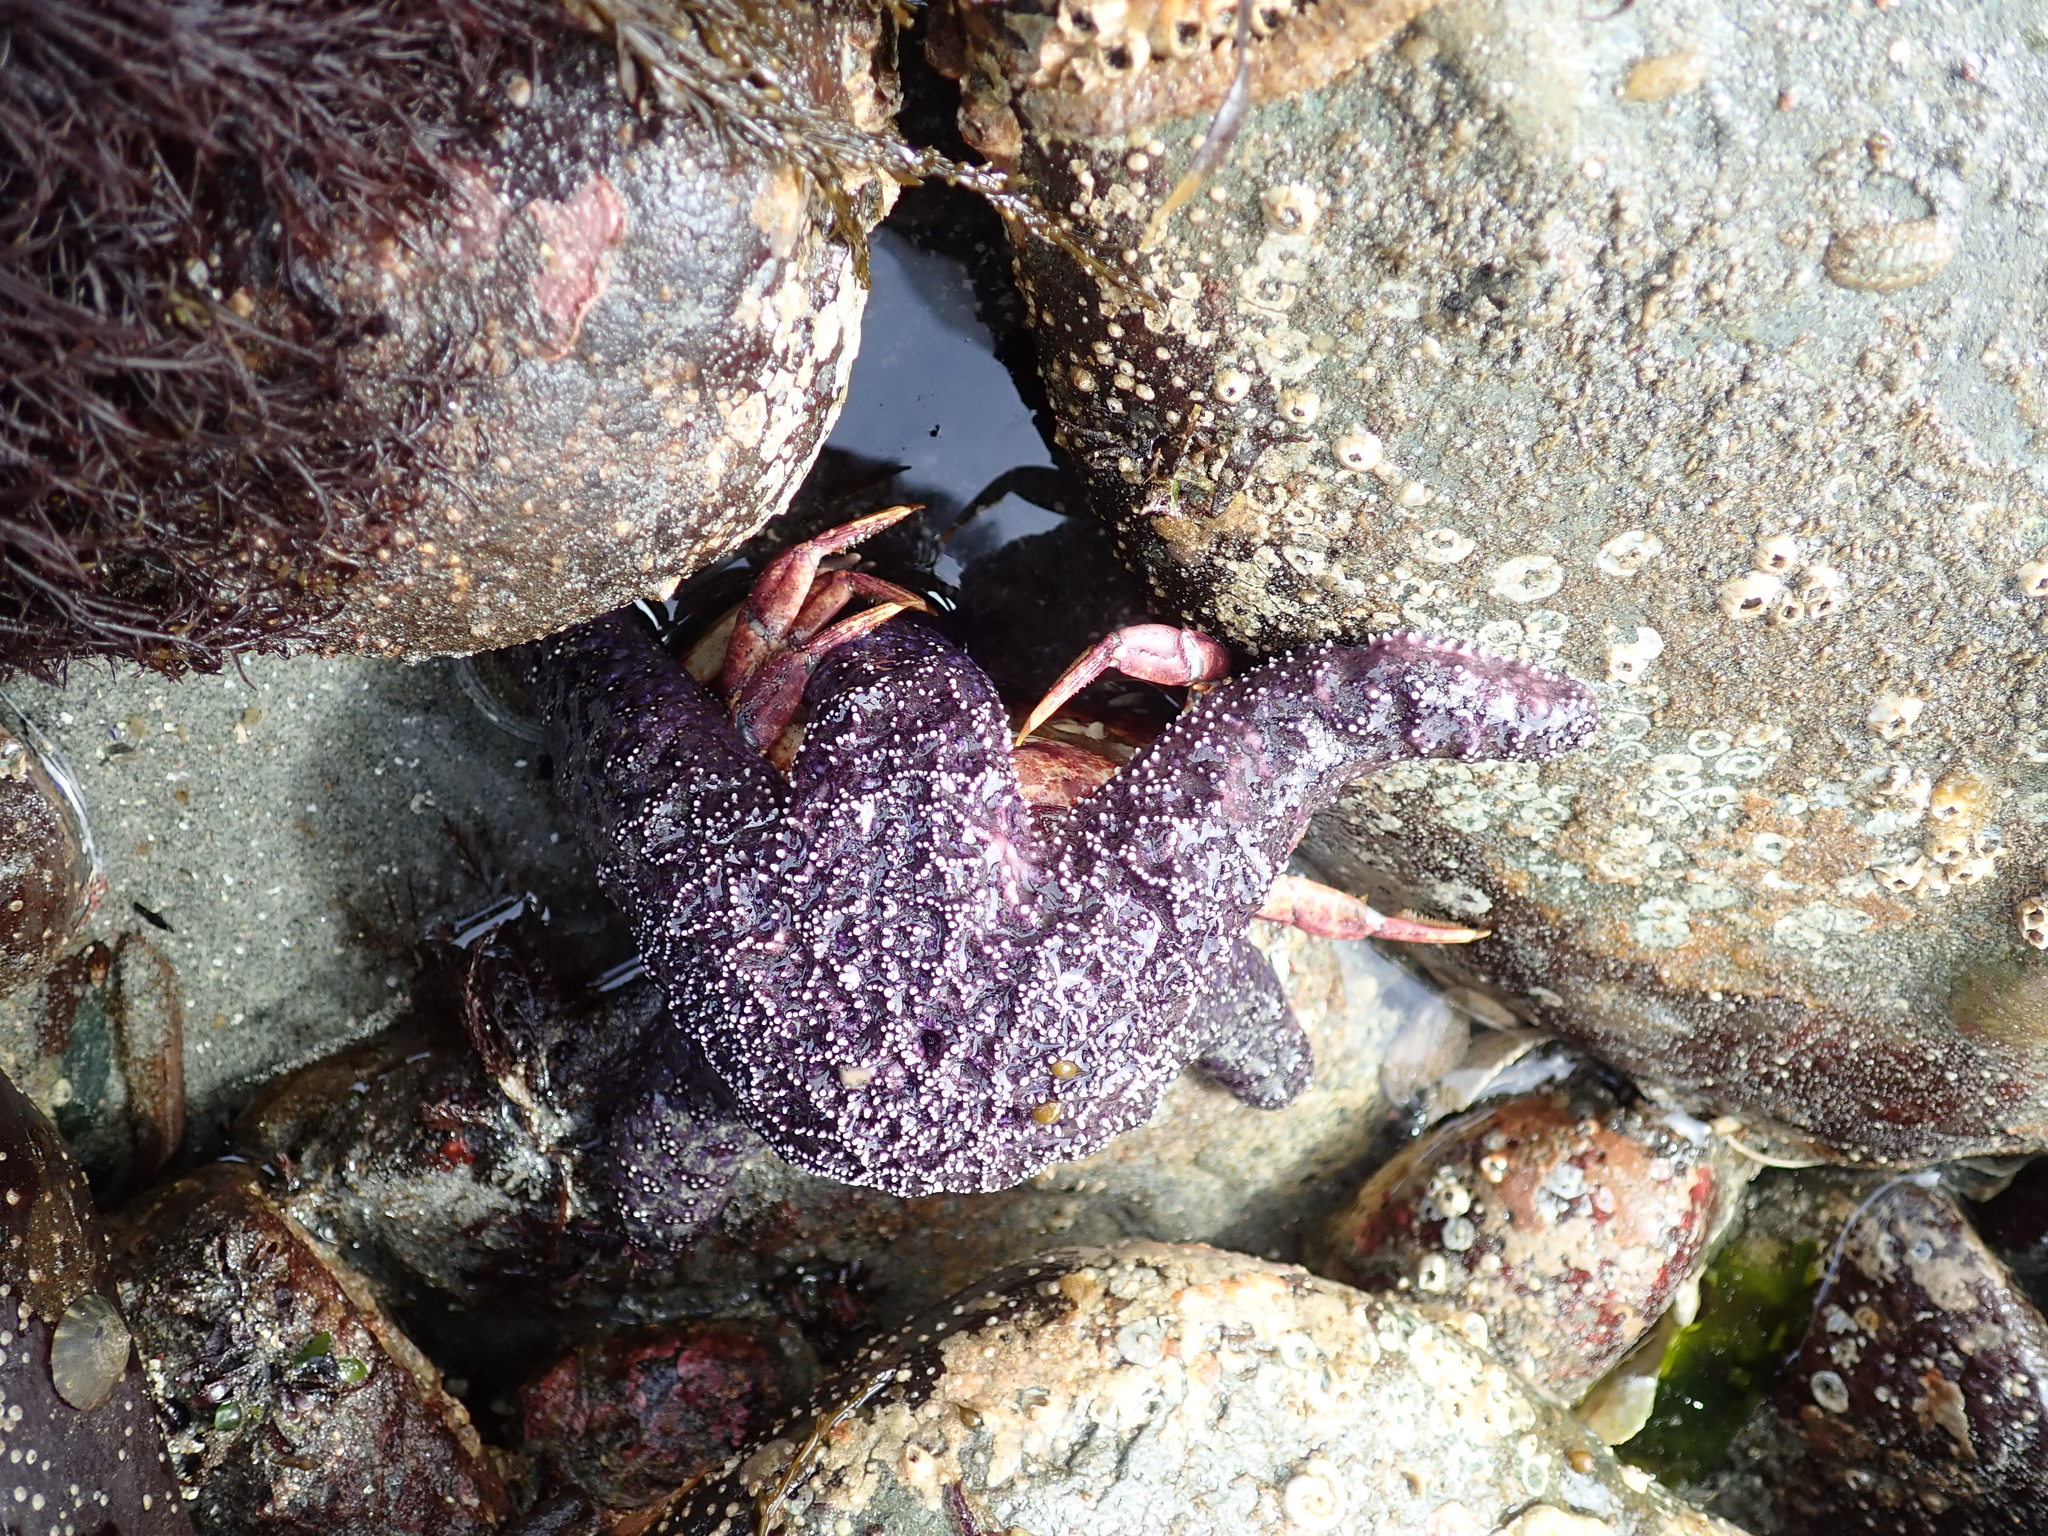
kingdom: Animalia
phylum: Echinodermata
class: Asteroidea
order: Forcipulatida
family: Asteriidae
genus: Pisaster
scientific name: Pisaster ochraceus
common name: Ochre stars
